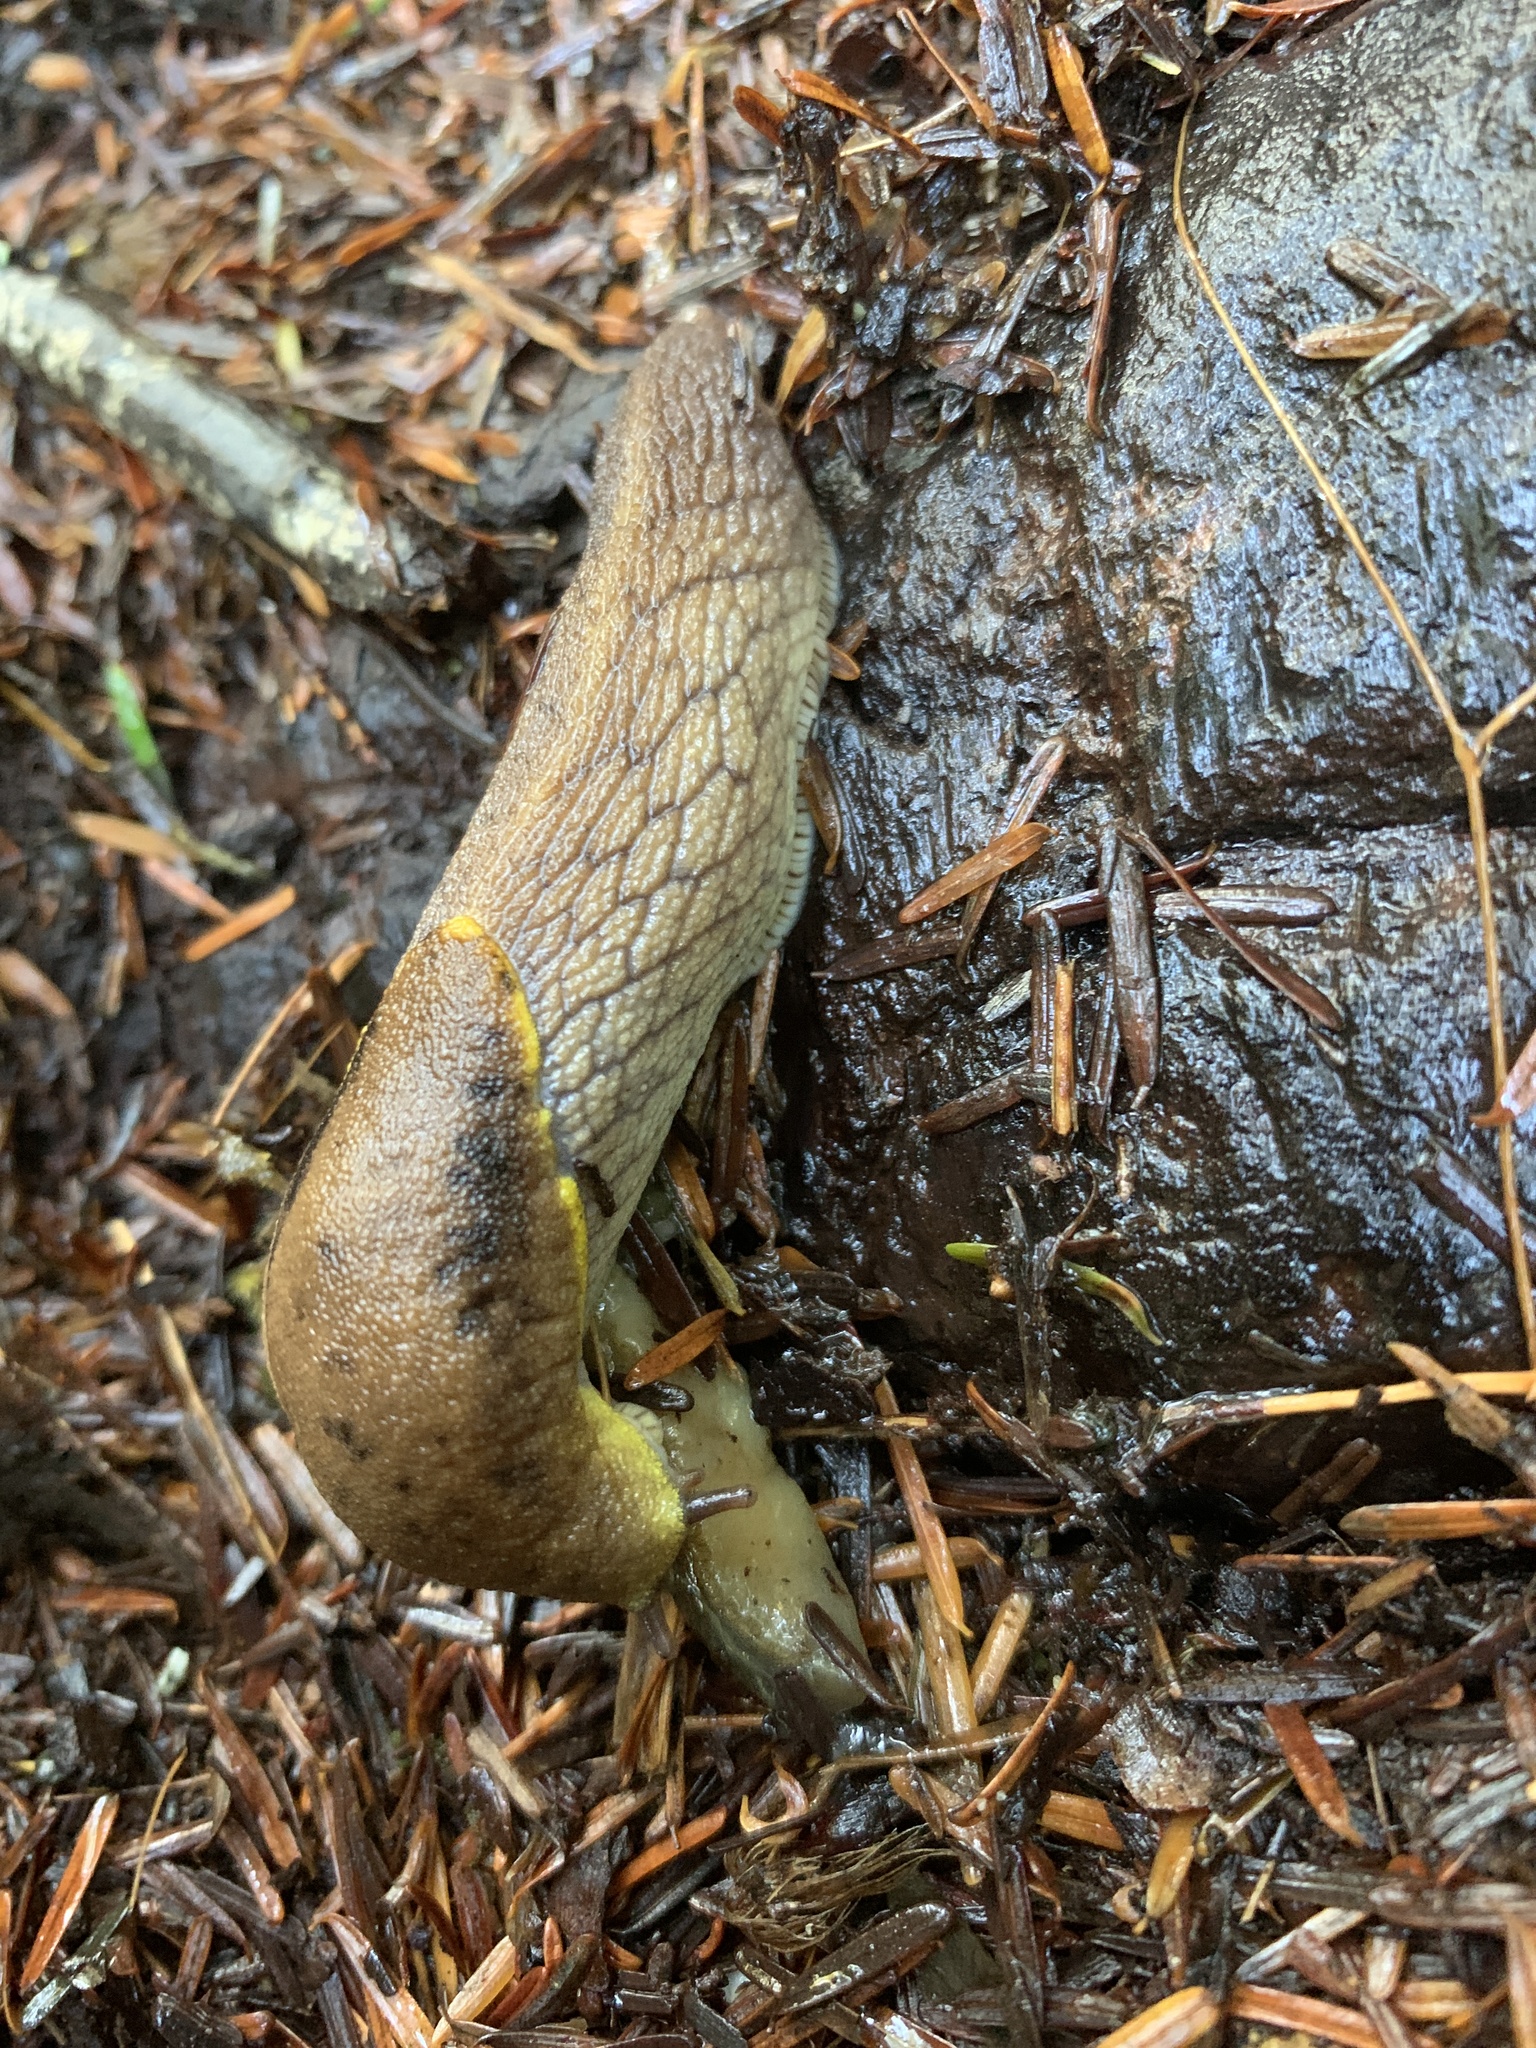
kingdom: Animalia
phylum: Mollusca
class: Gastropoda
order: Stylommatophora
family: Ariolimacidae
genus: Prophysaon
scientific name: Prophysaon foliolatum
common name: Yellow-bordered taildropper
